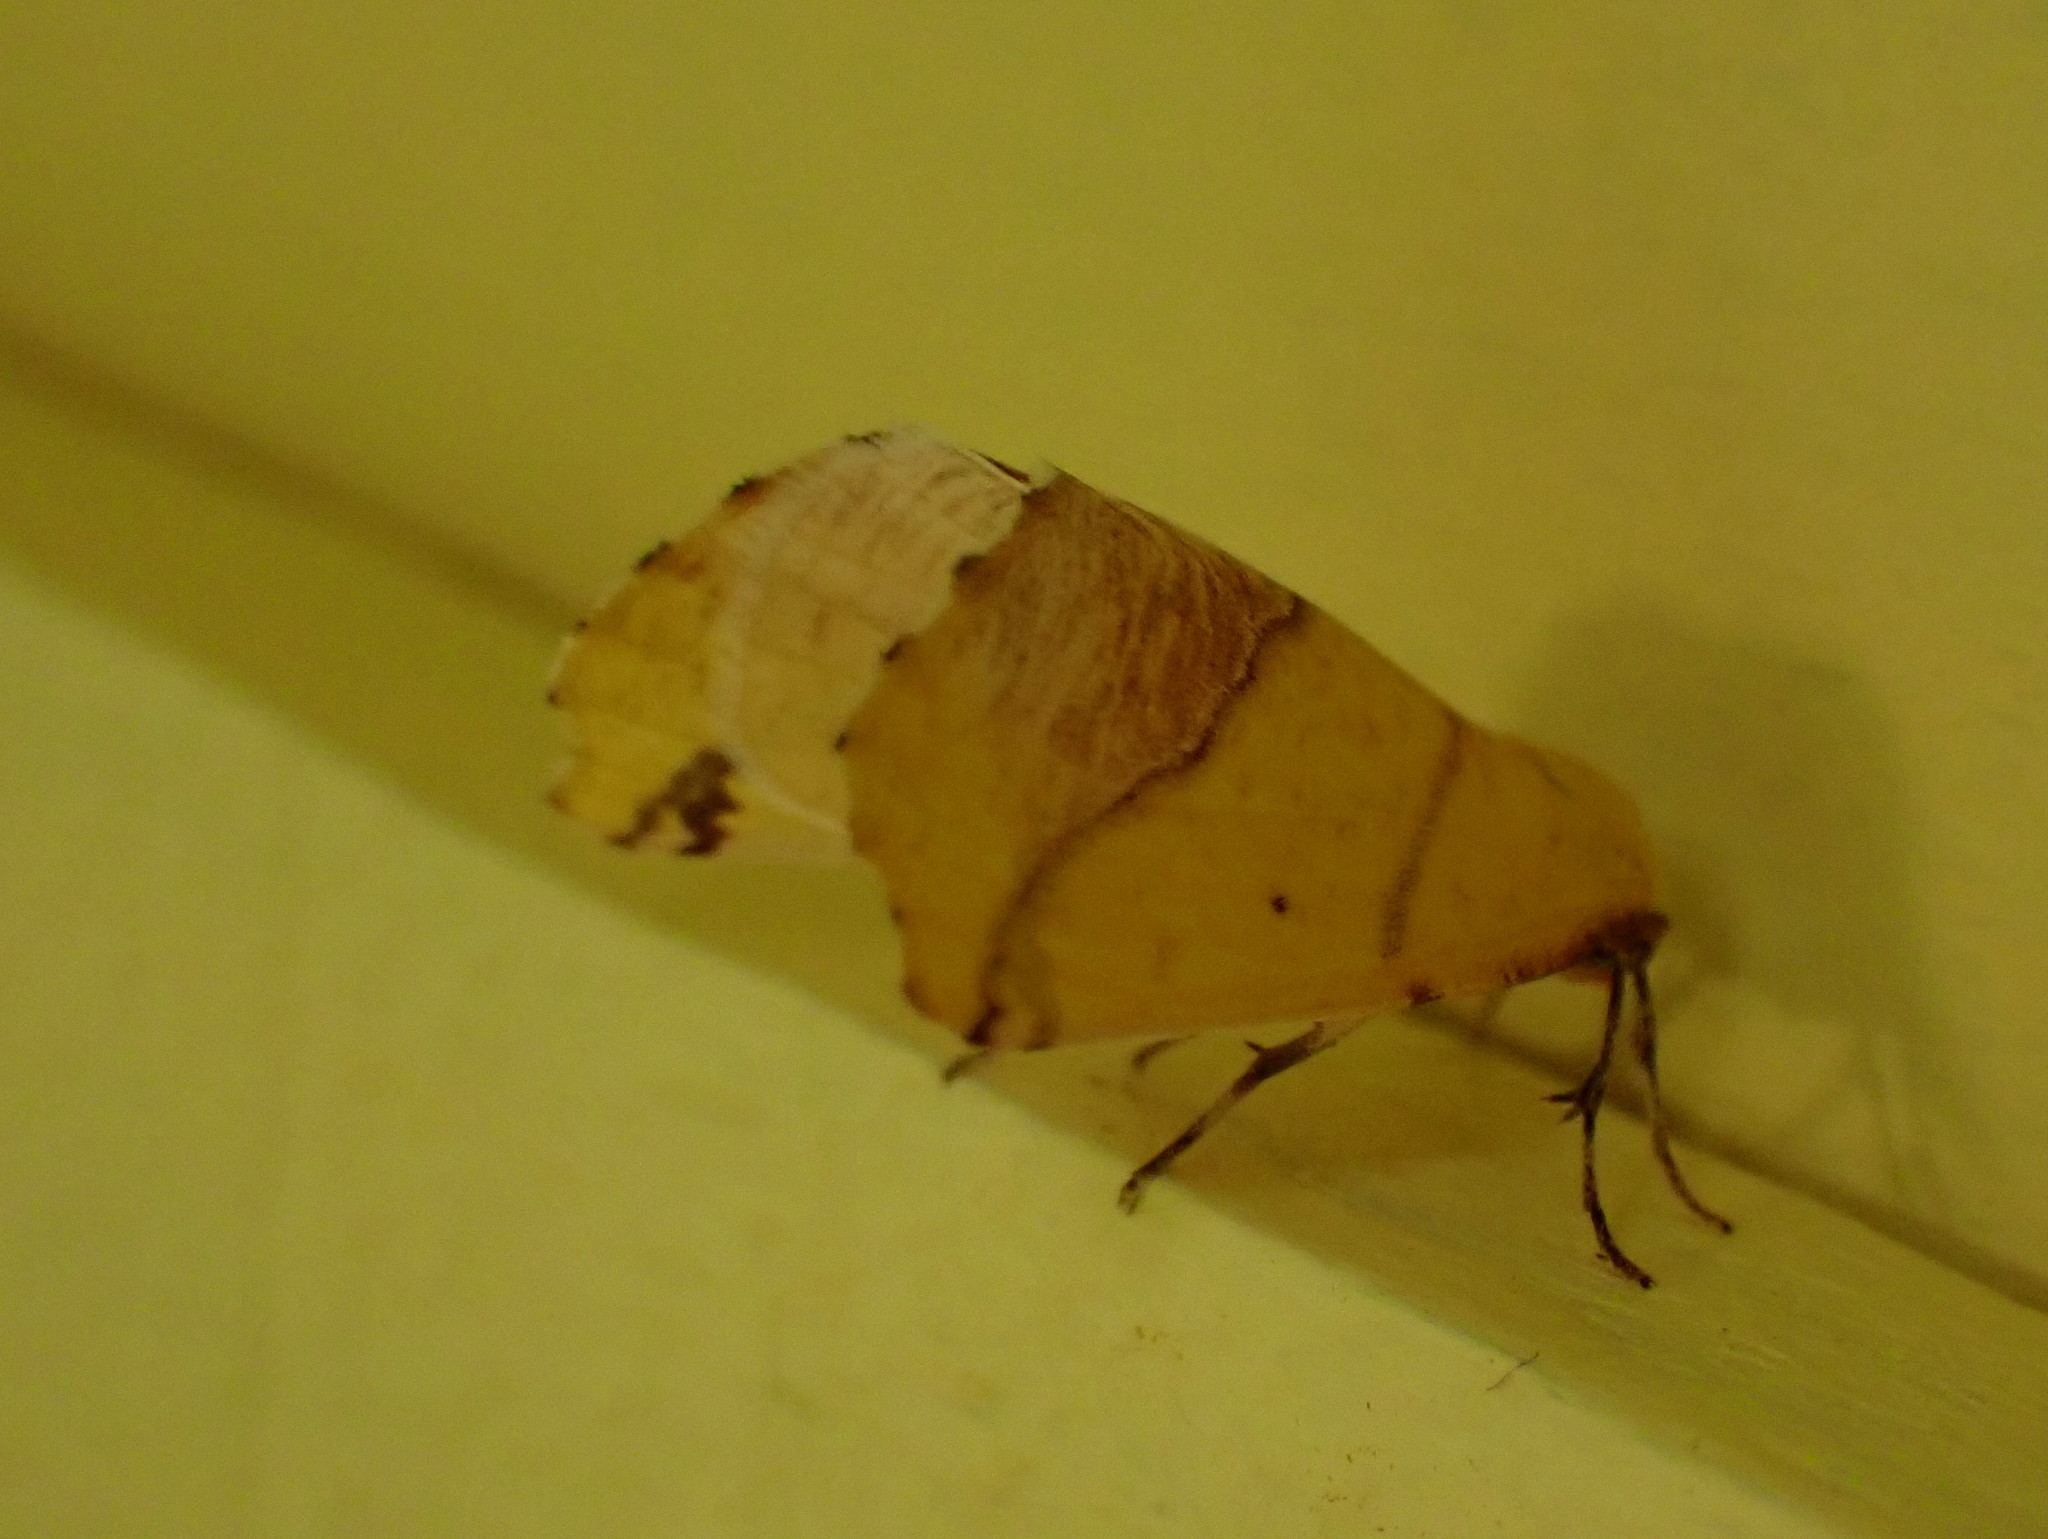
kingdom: Animalia
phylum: Arthropoda
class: Insecta
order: Lepidoptera
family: Geometridae
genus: Sicya
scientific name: Sicya macularia
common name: Sharp-lined yellow
